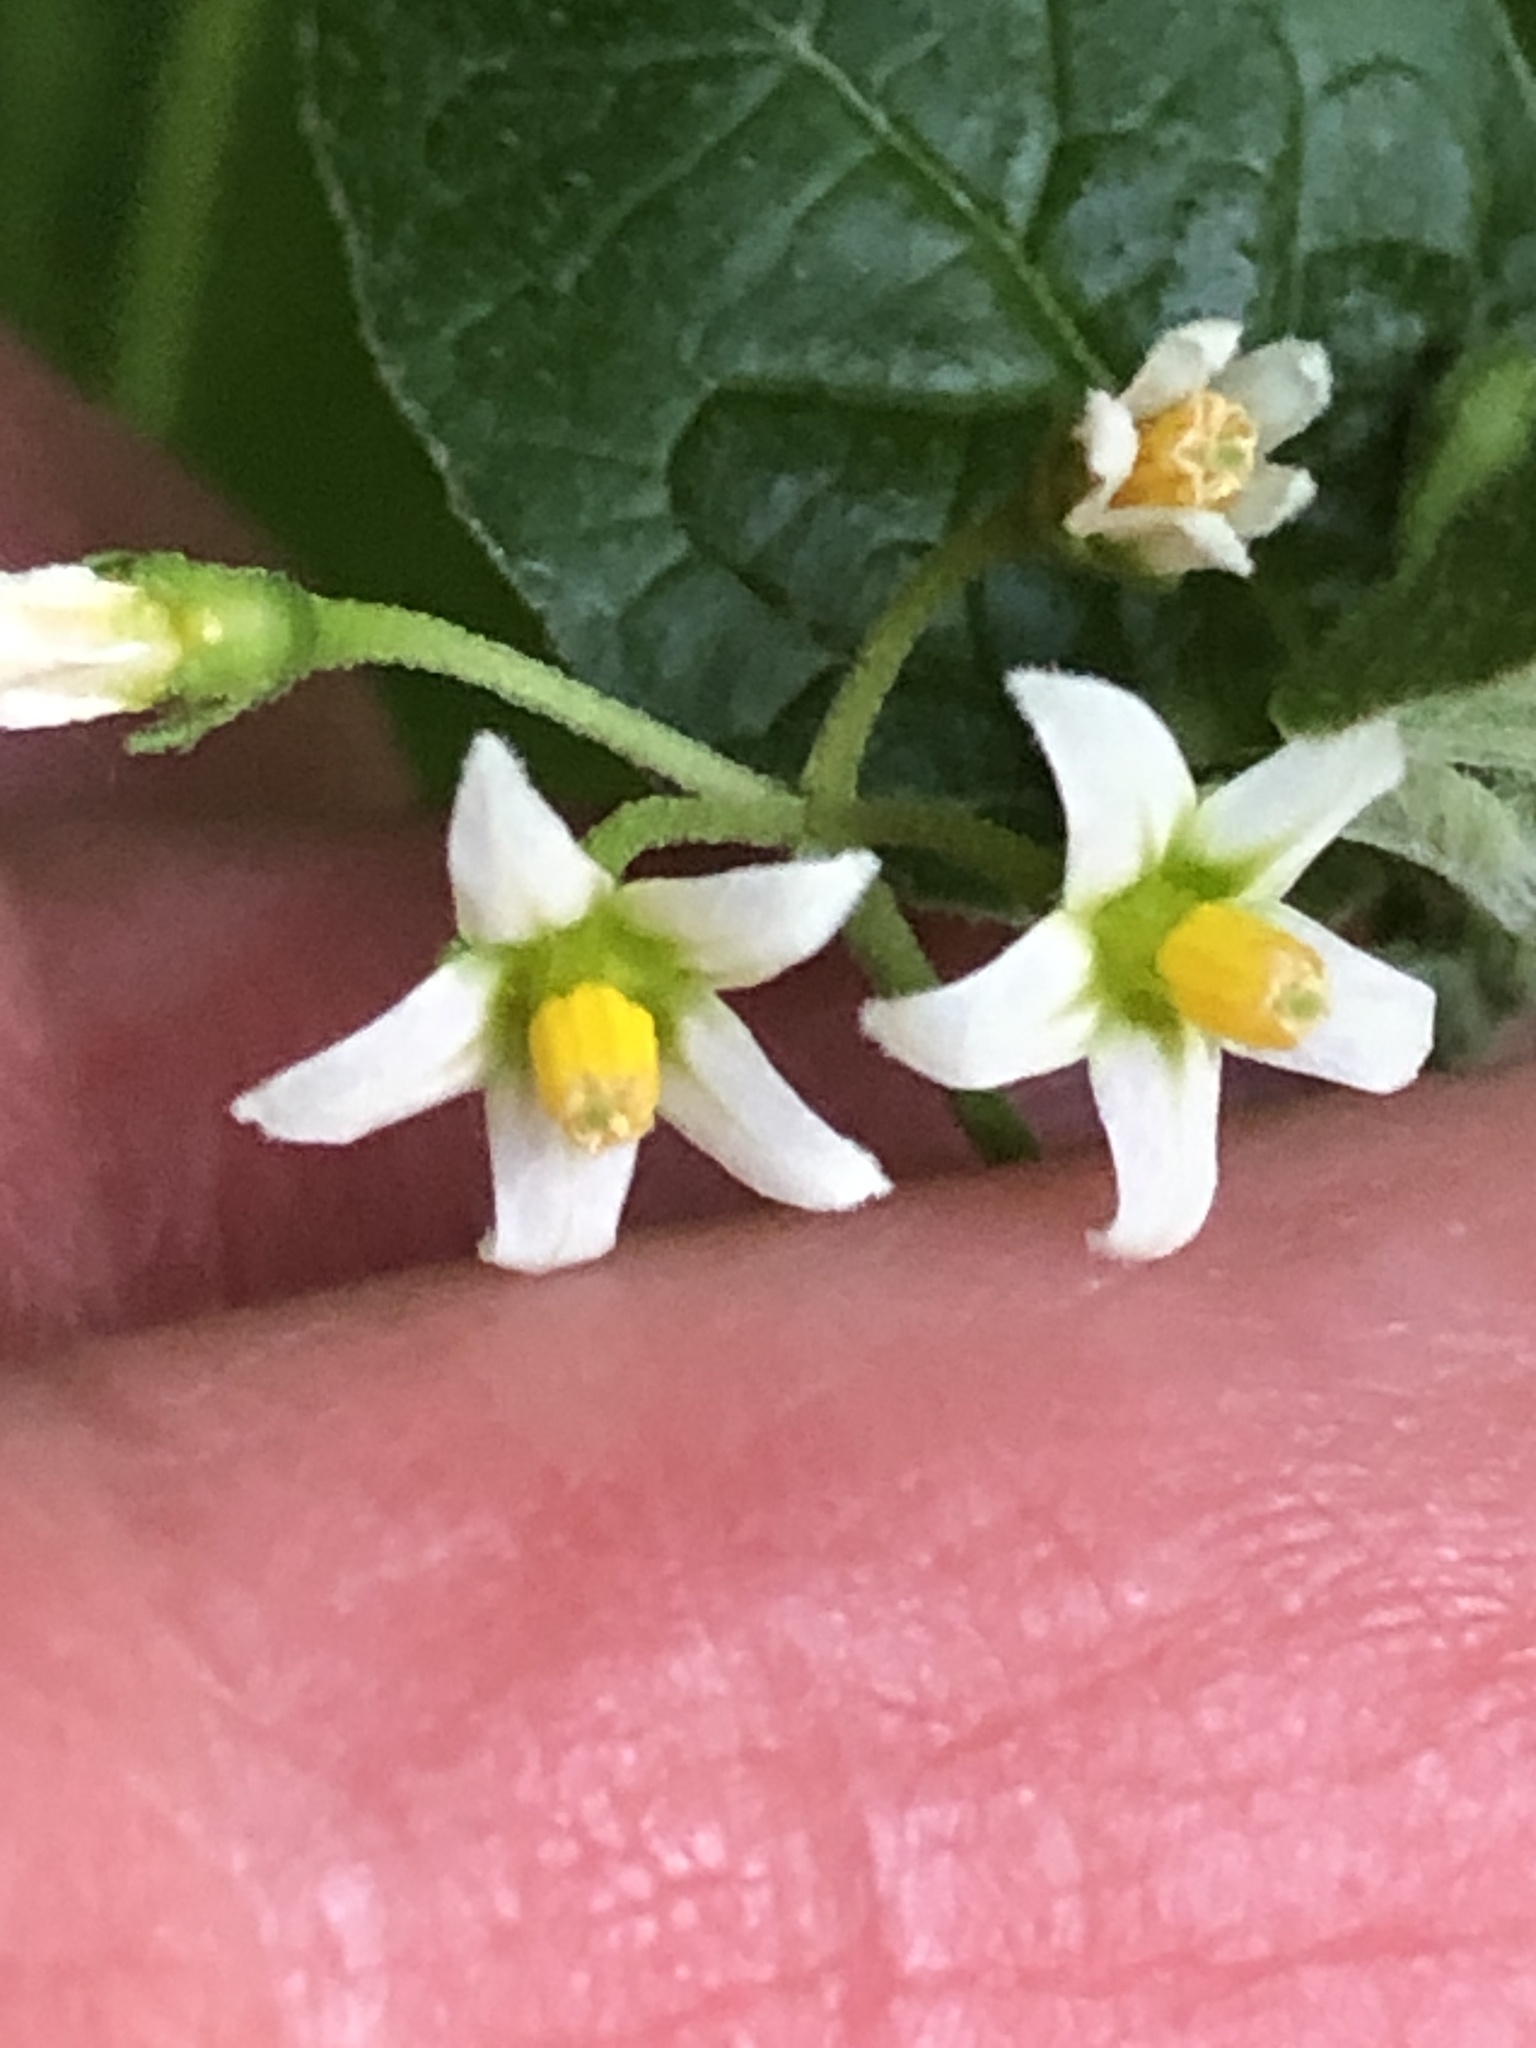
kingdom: Plantae
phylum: Tracheophyta
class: Magnoliopsida
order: Solanales
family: Solanaceae
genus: Solanum
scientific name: Solanum emulans
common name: Eastern black nightshade
